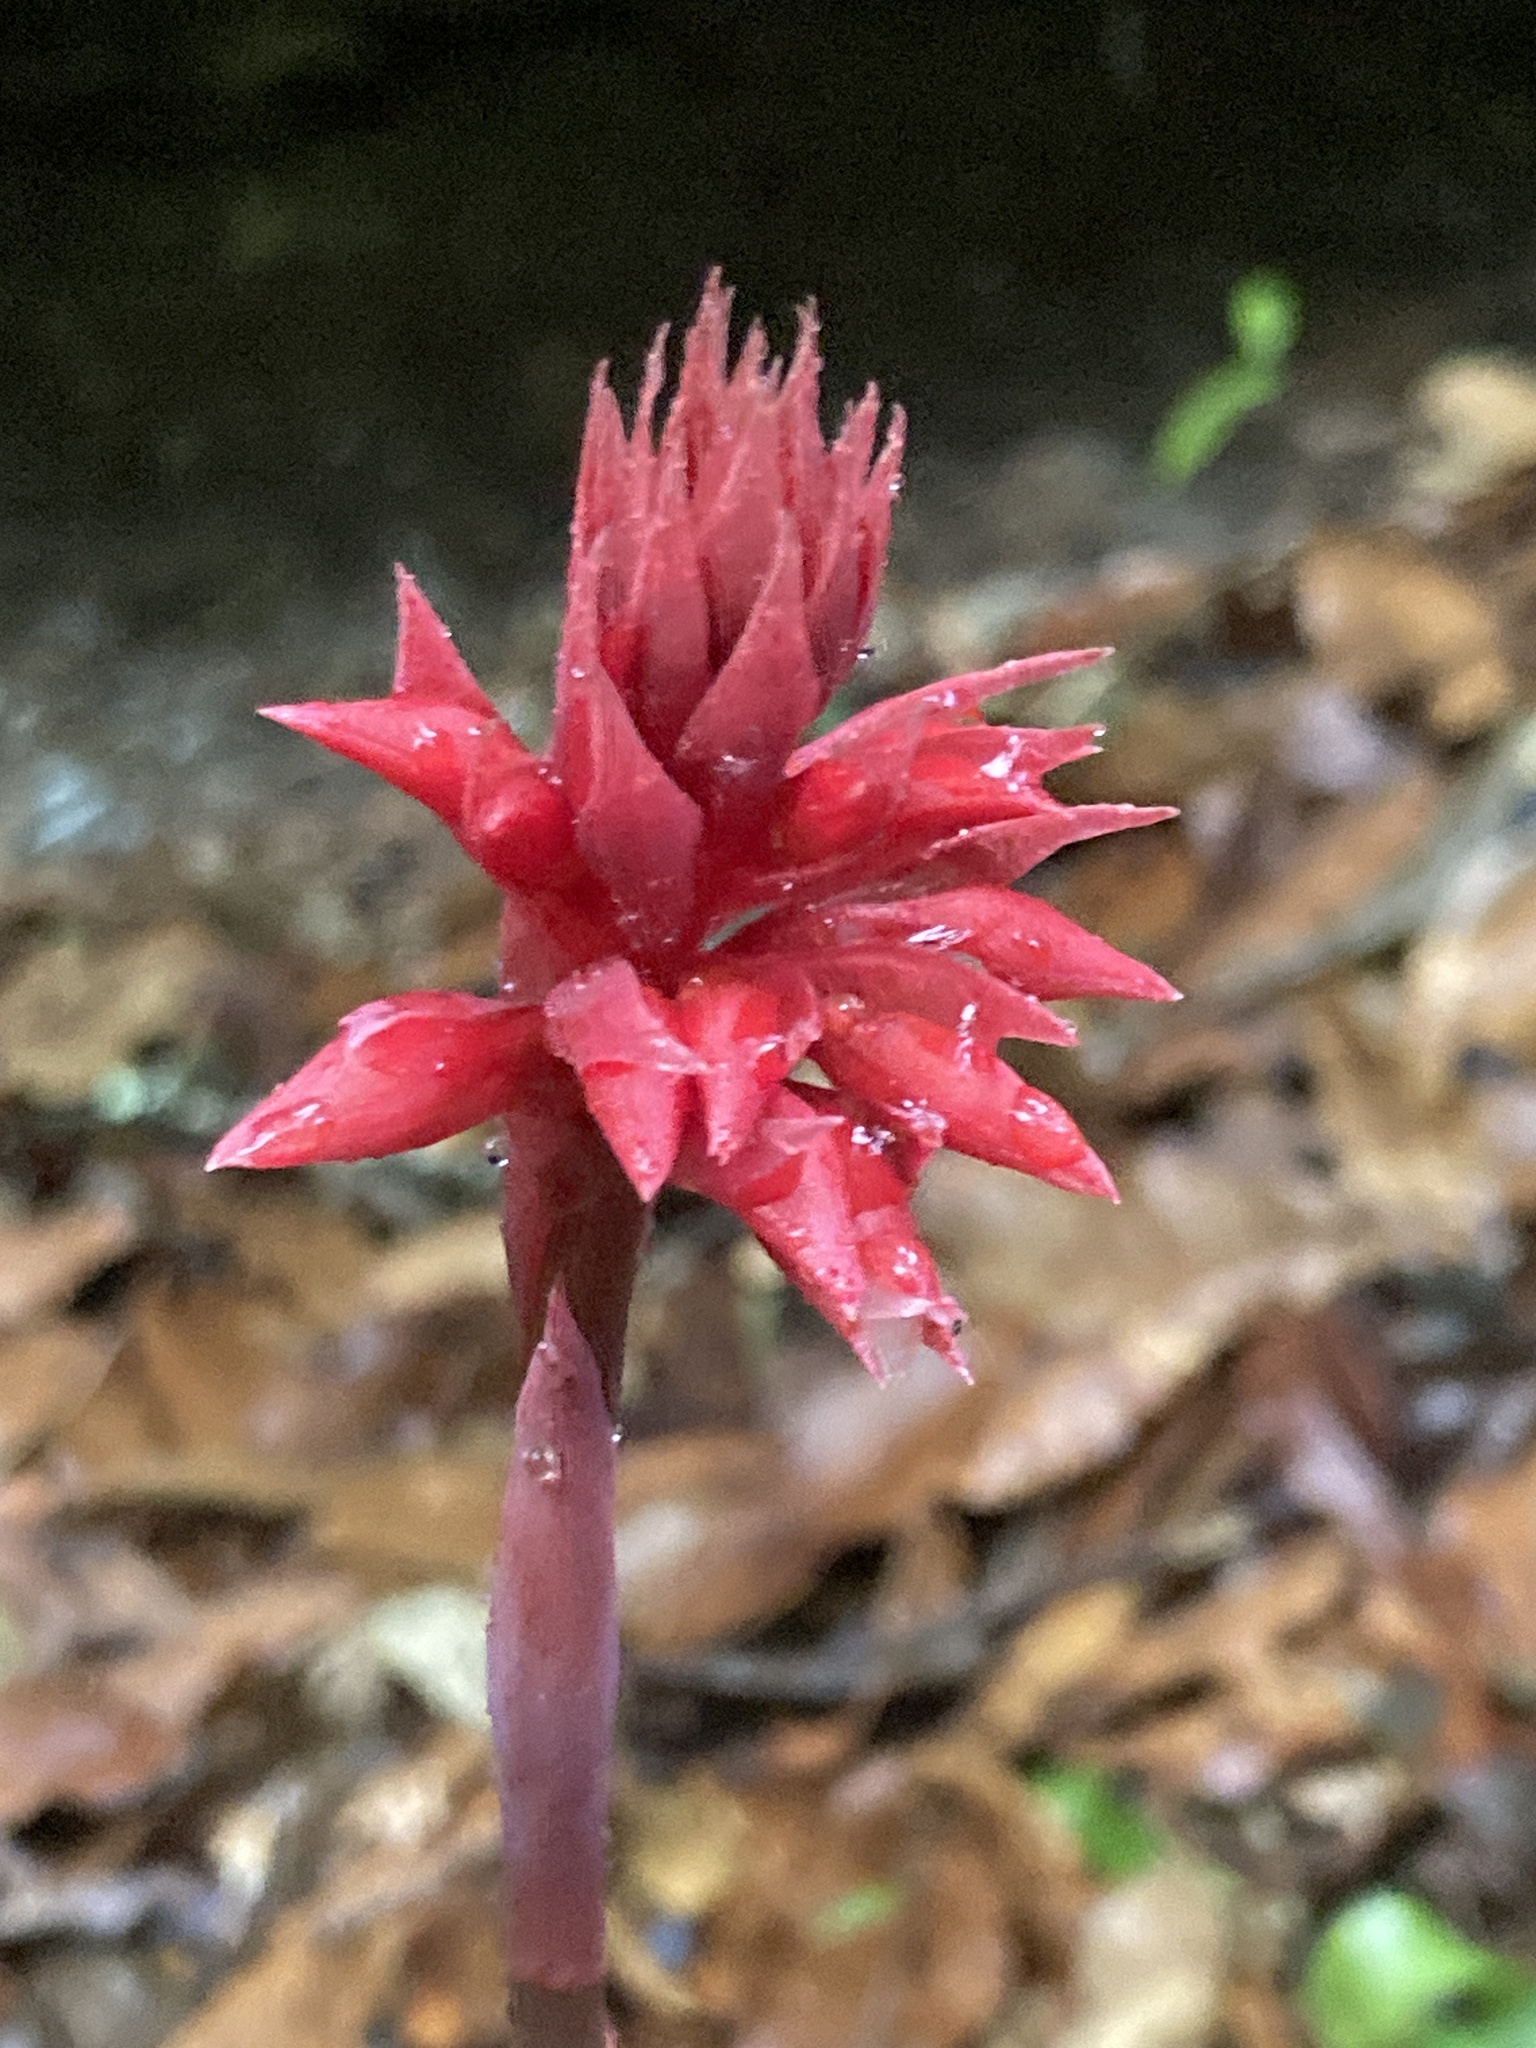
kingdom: Plantae
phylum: Tracheophyta
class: Liliopsida
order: Asparagales
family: Orchidaceae
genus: Stenorrhynchos
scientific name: Stenorrhynchos albidomaculatum
